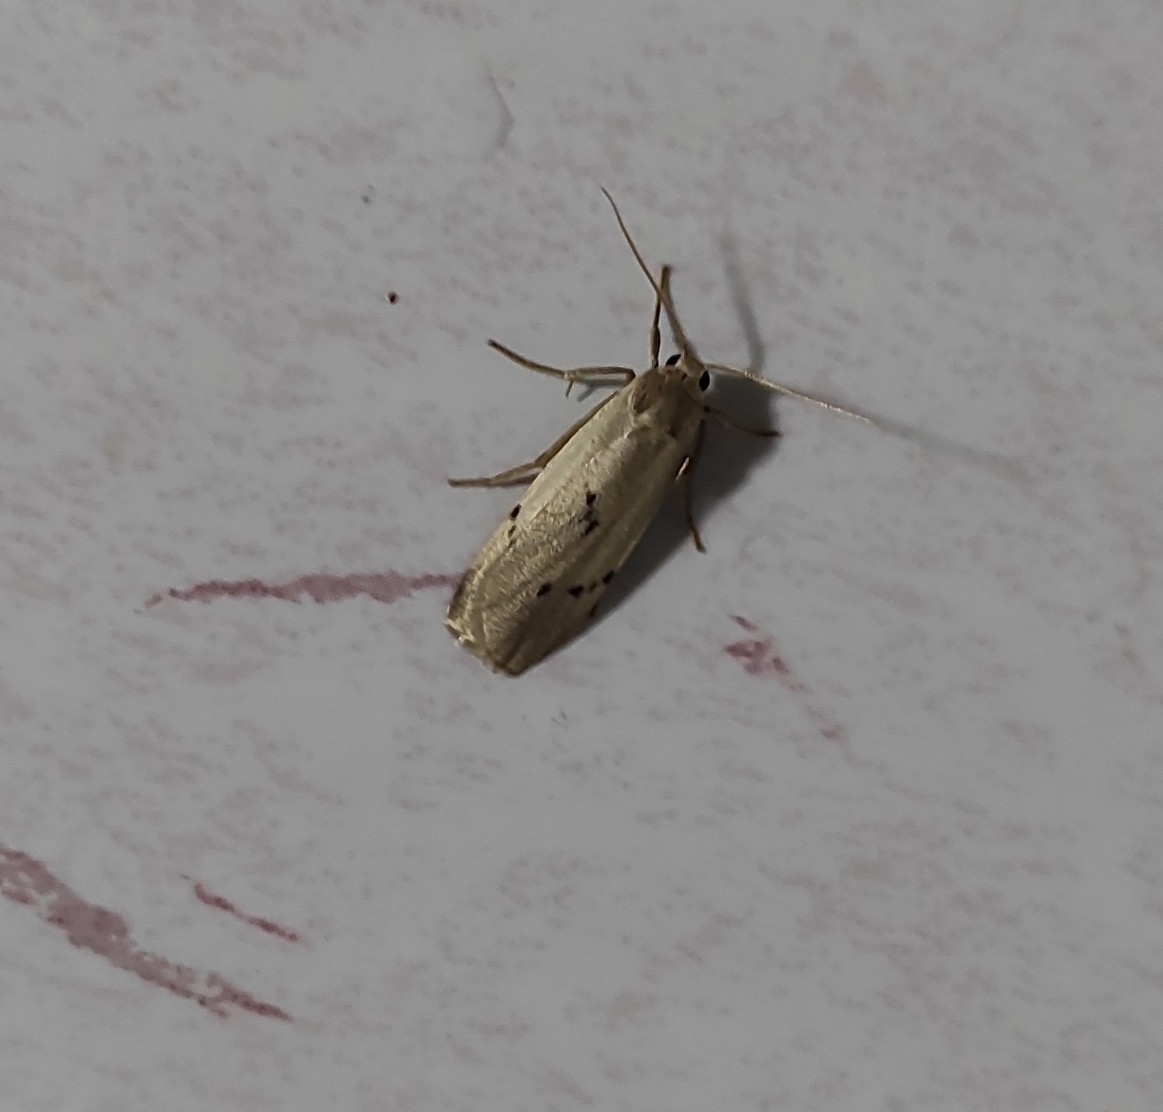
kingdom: Animalia
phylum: Arthropoda
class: Insecta
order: Lepidoptera
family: Erebidae
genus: Pelosia
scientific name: Pelosia muscerda
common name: Dotted footman
